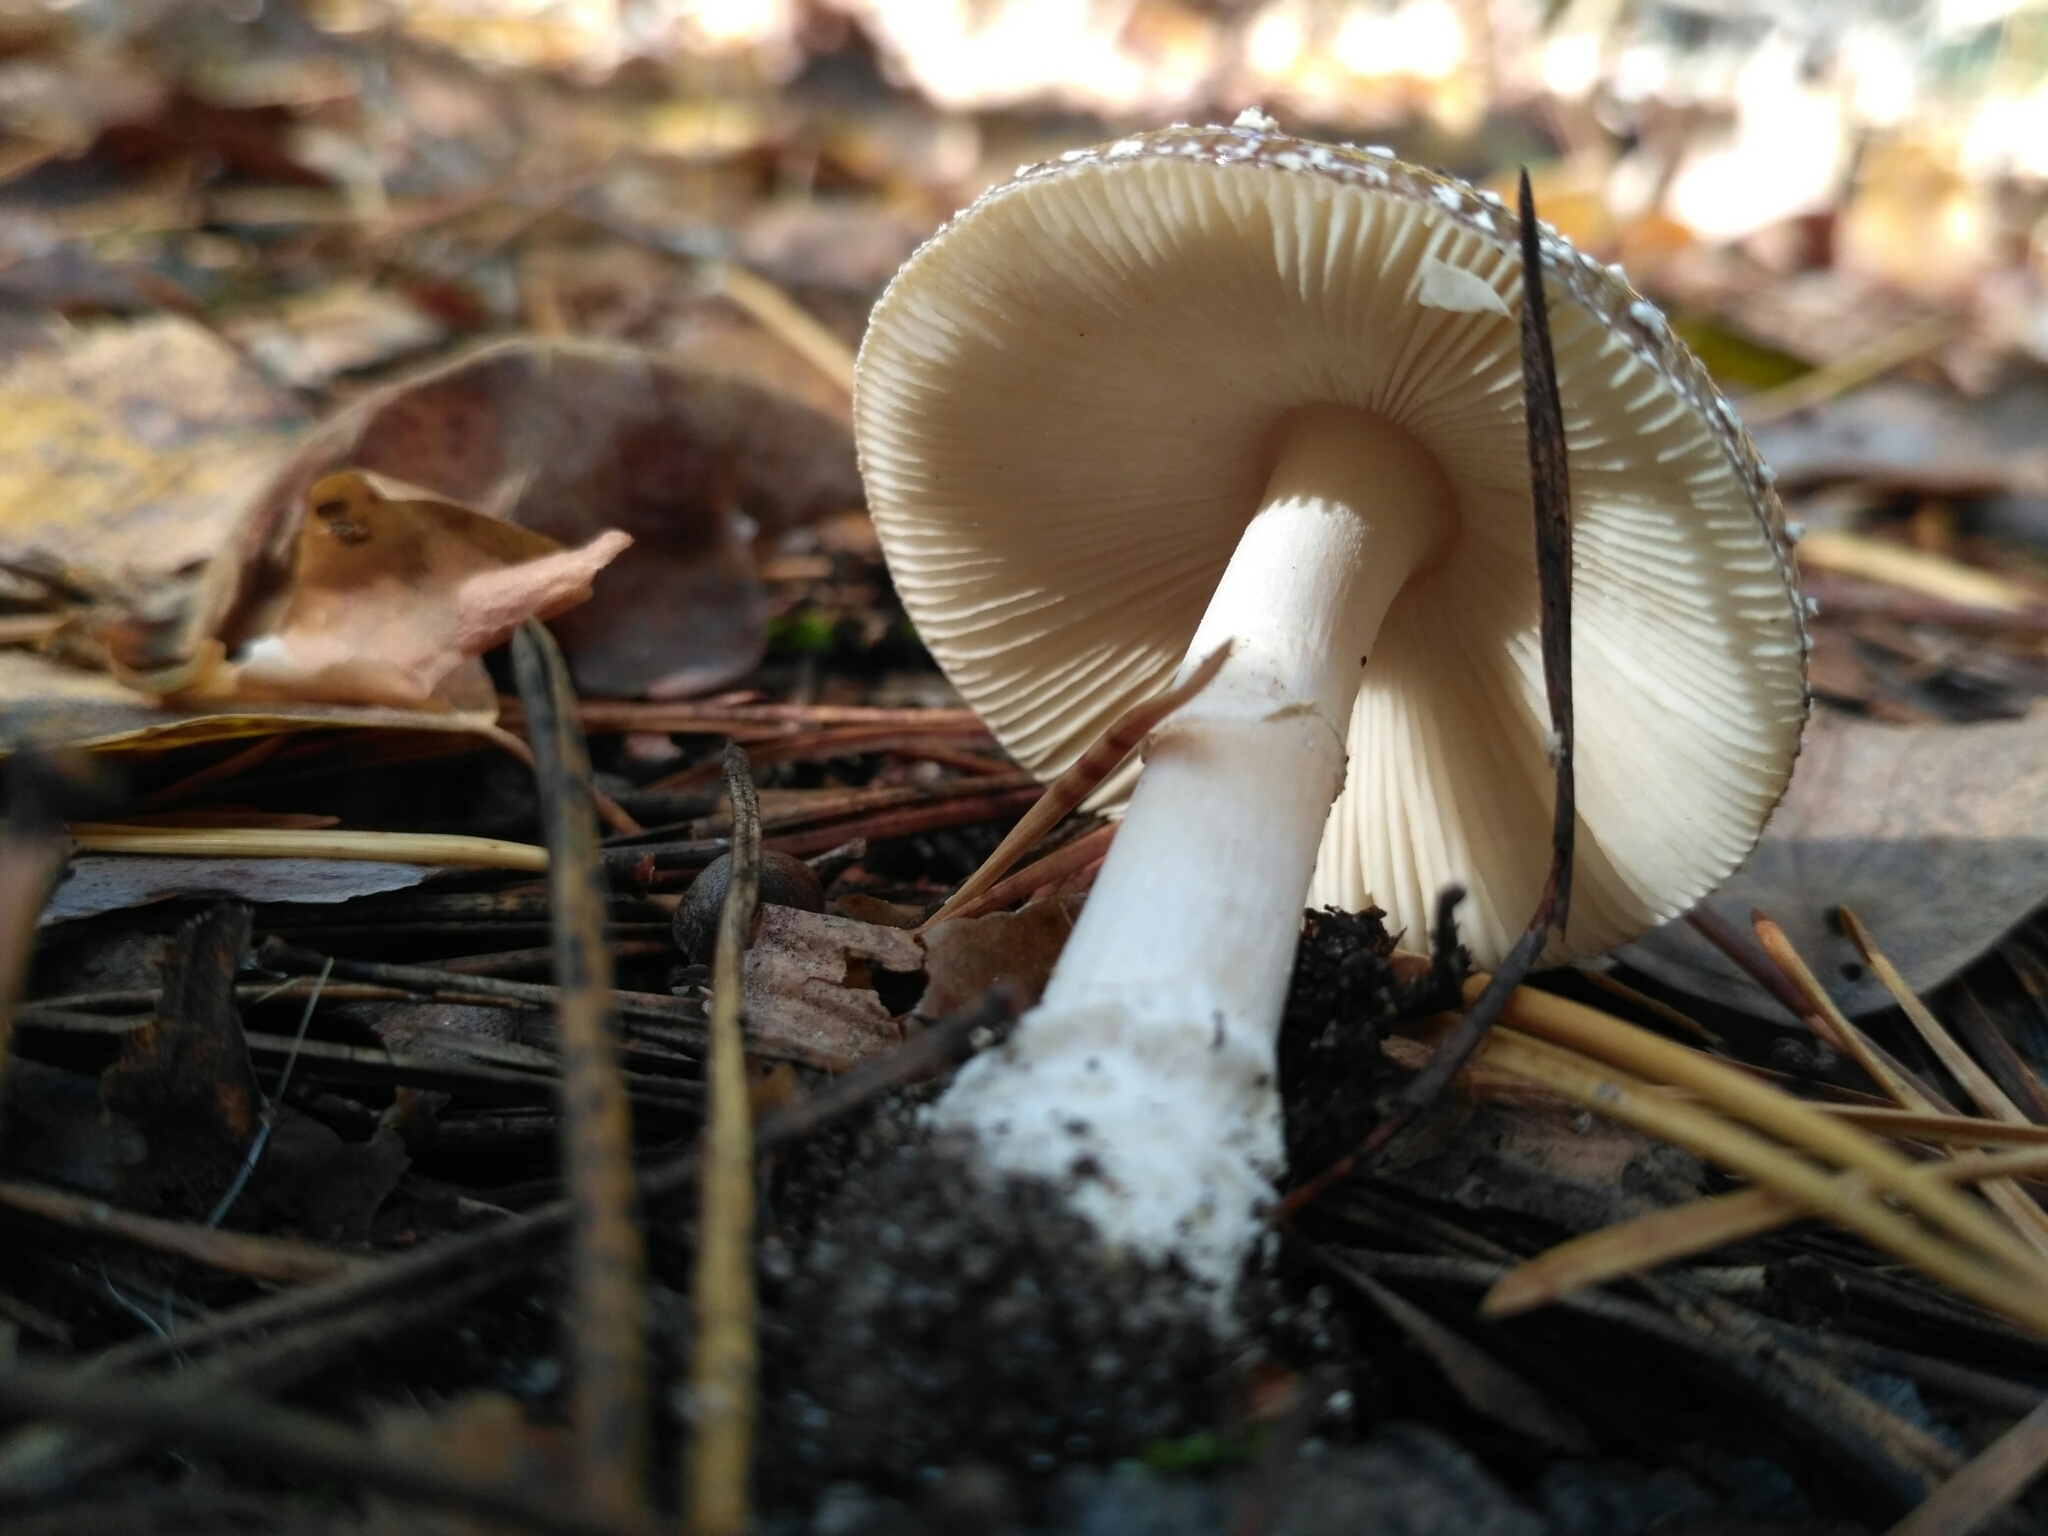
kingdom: Fungi
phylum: Basidiomycota
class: Agaricomycetes
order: Agaricales
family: Amanitaceae
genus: Amanita
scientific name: Amanita pantherina
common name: Panthercap
